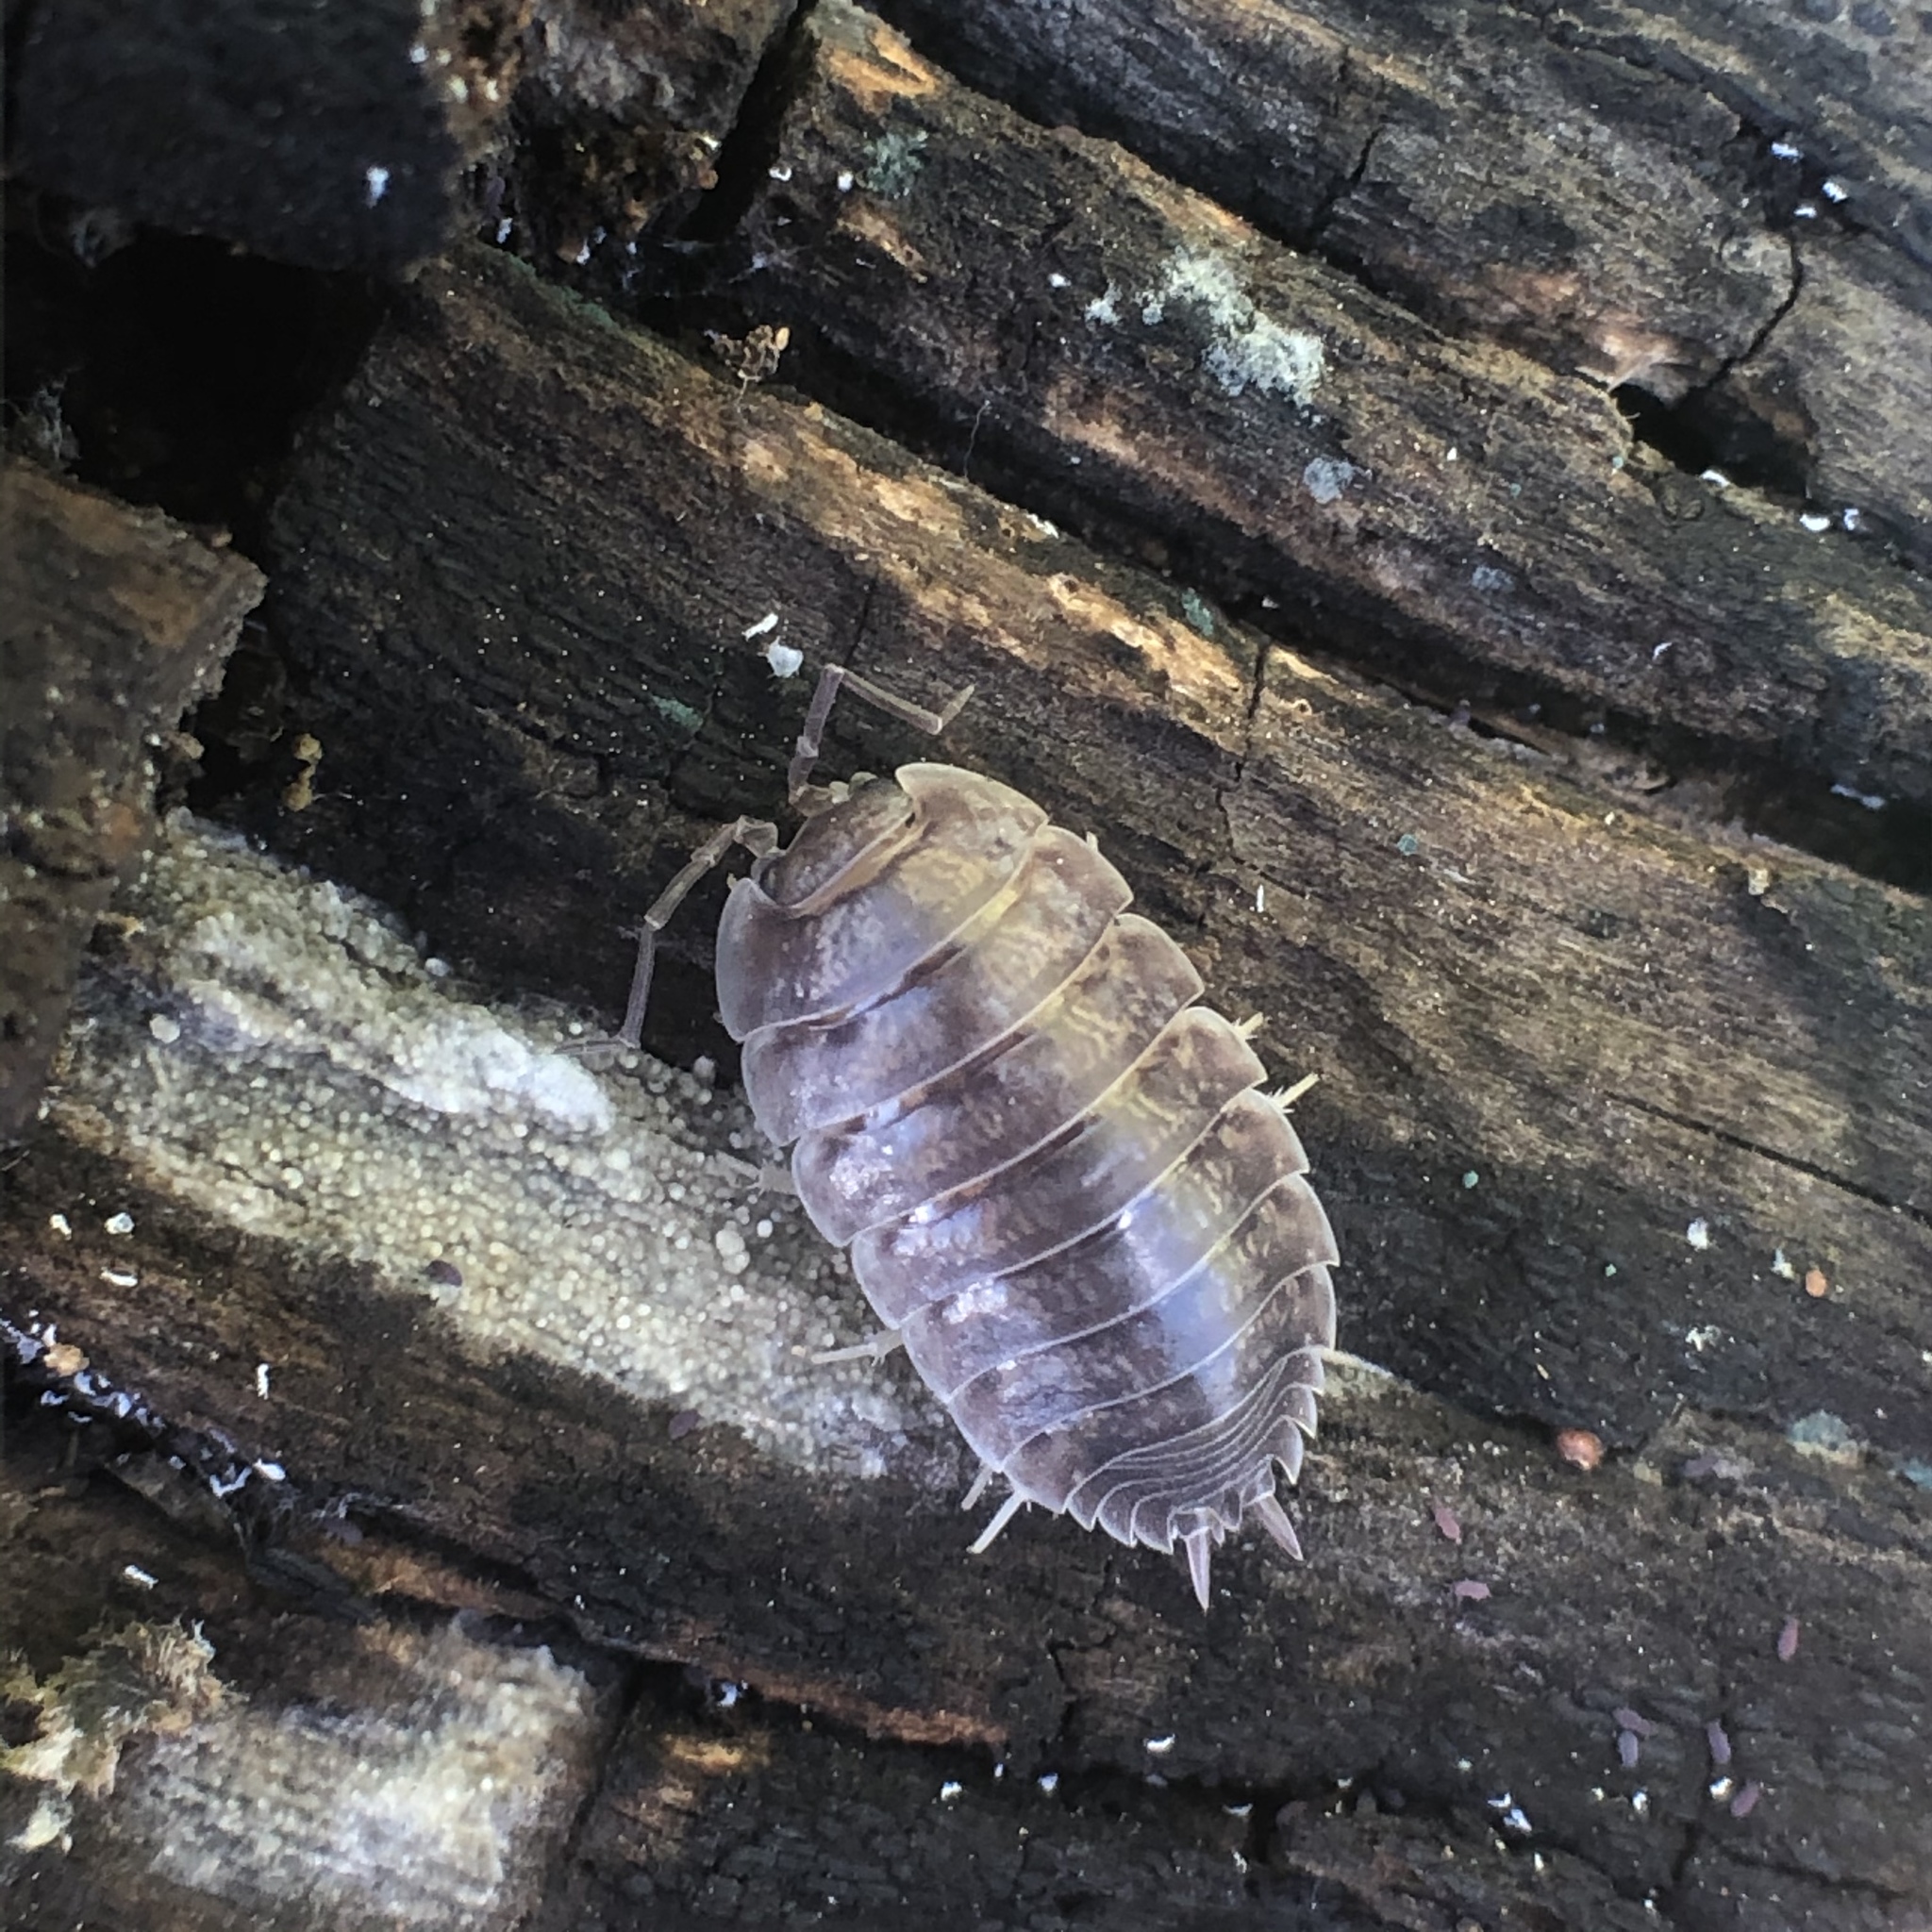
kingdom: Animalia
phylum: Arthropoda
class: Malacostraca
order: Isopoda
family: Porcellionidae
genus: Porcellio
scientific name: Porcellio laevis
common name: Swift woodlouse
